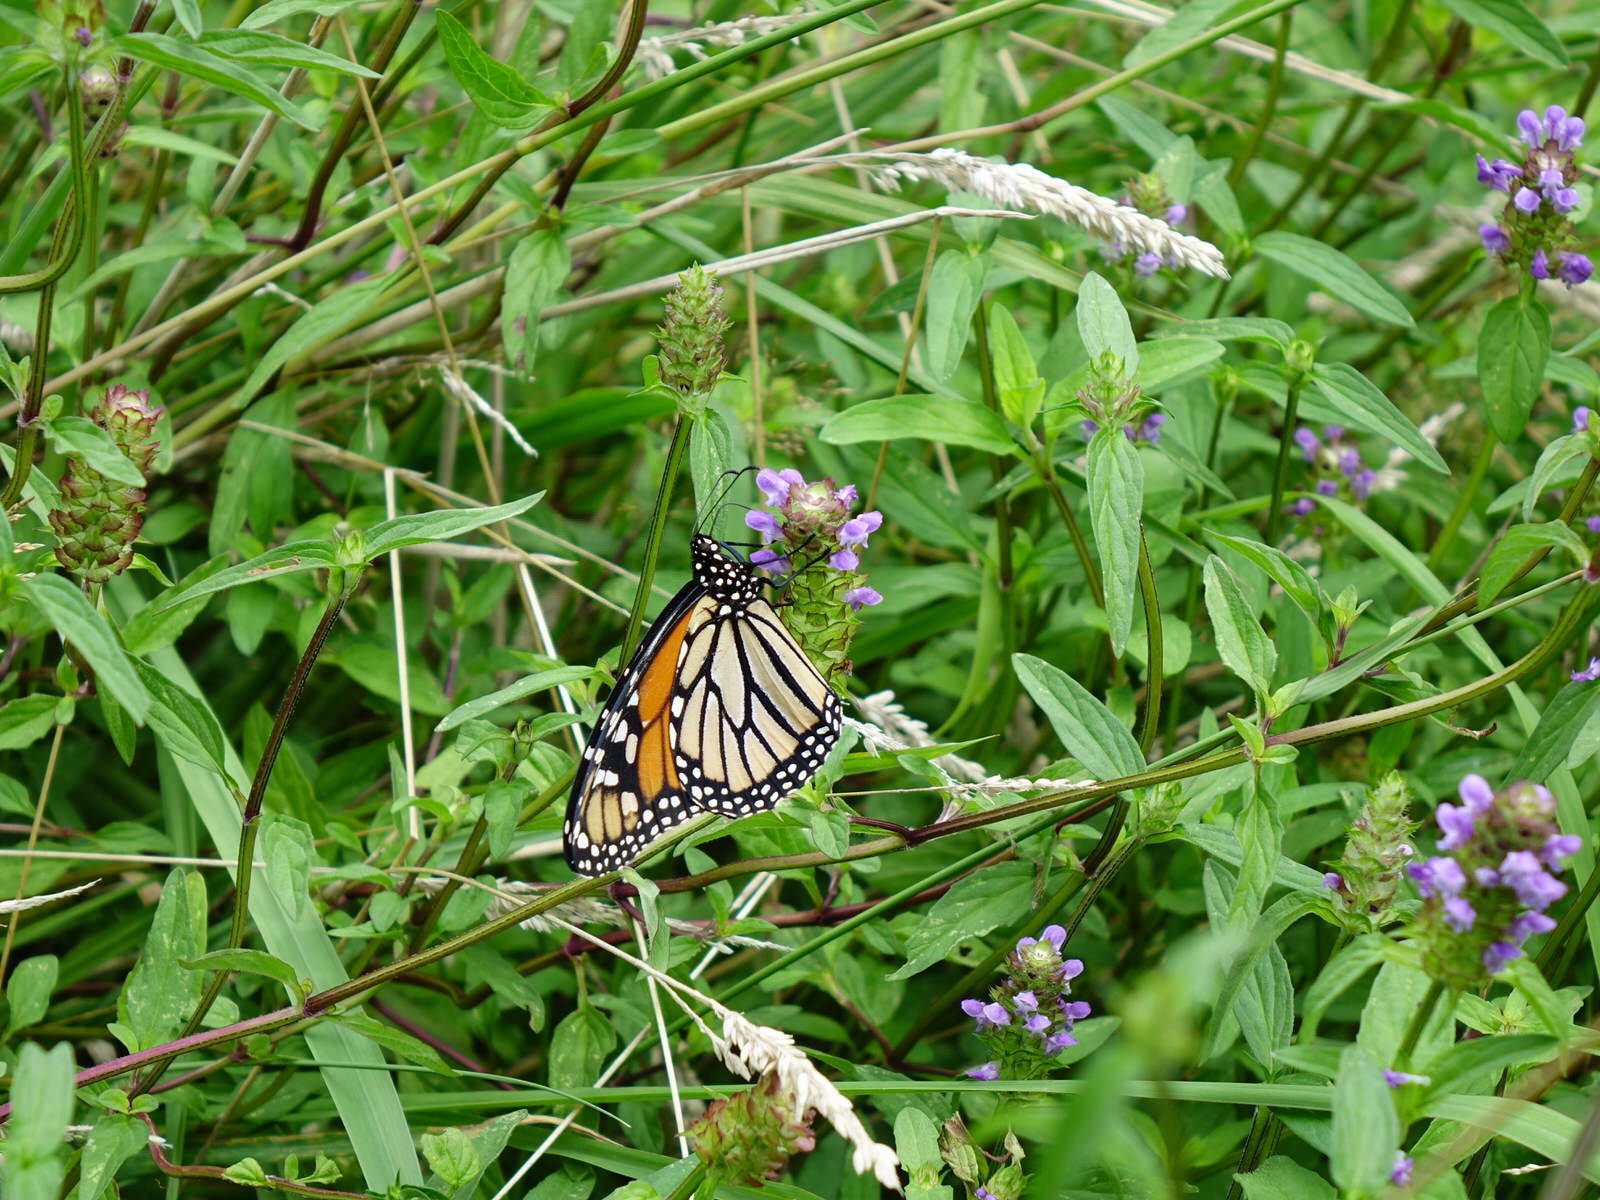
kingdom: Animalia
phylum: Arthropoda
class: Insecta
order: Lepidoptera
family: Nymphalidae
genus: Danaus
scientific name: Danaus plexippus
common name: Monarch
